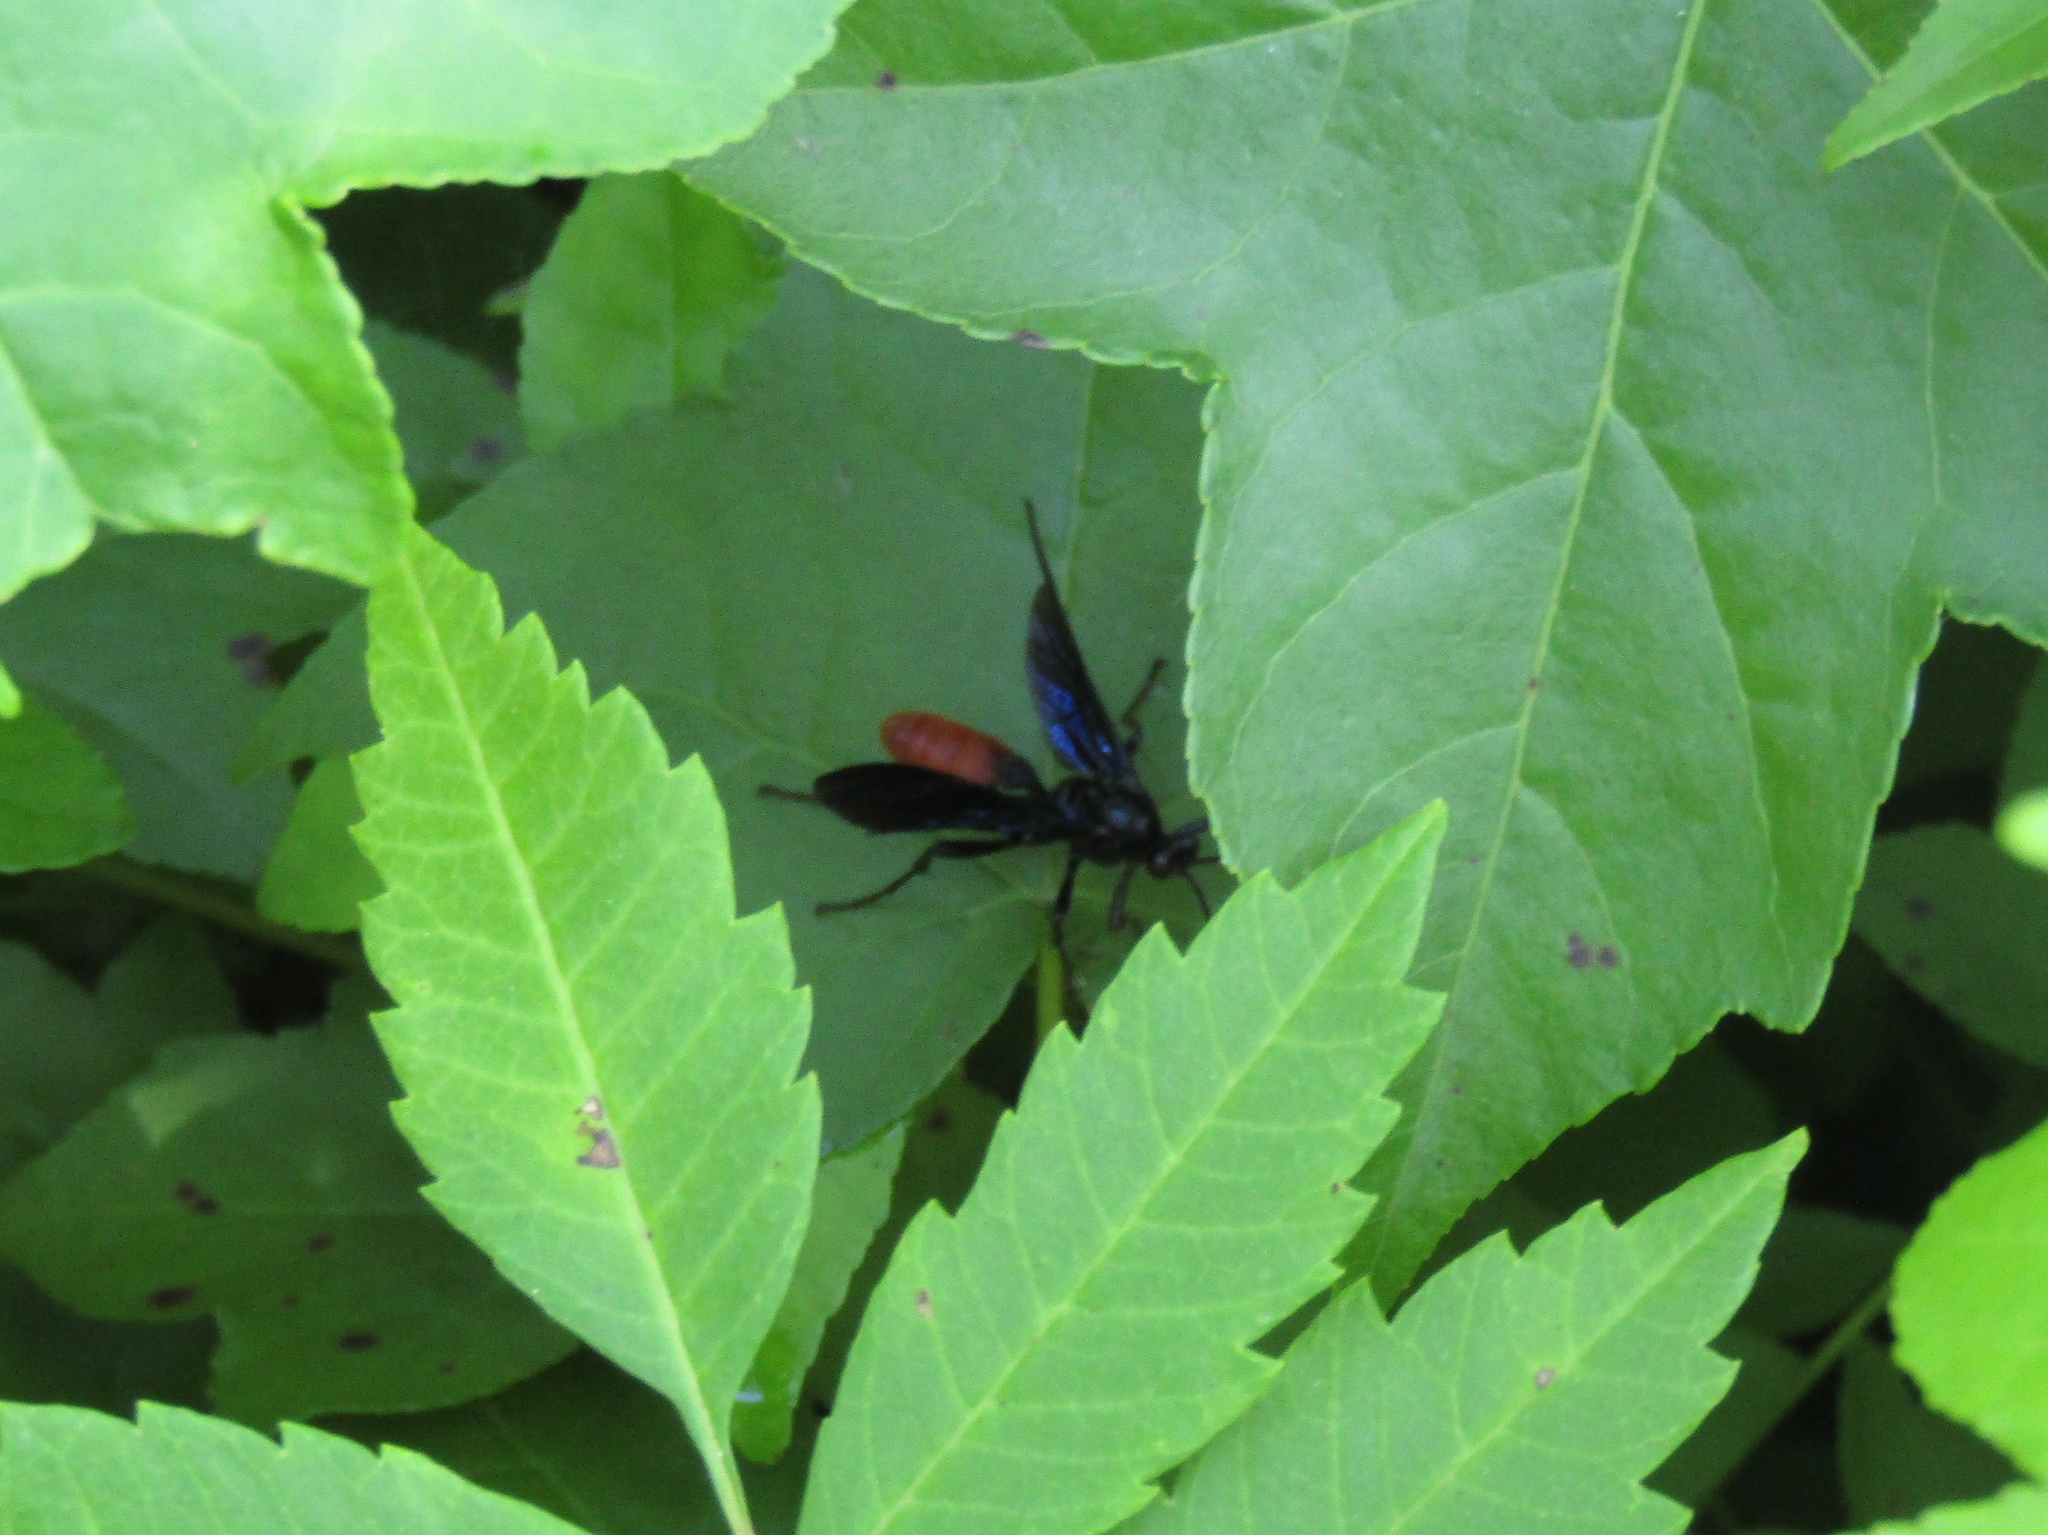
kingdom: Animalia
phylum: Arthropoda
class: Insecta
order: Hymenoptera
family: Ichneumonidae
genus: Saranaca
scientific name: Saranaca apicalis
